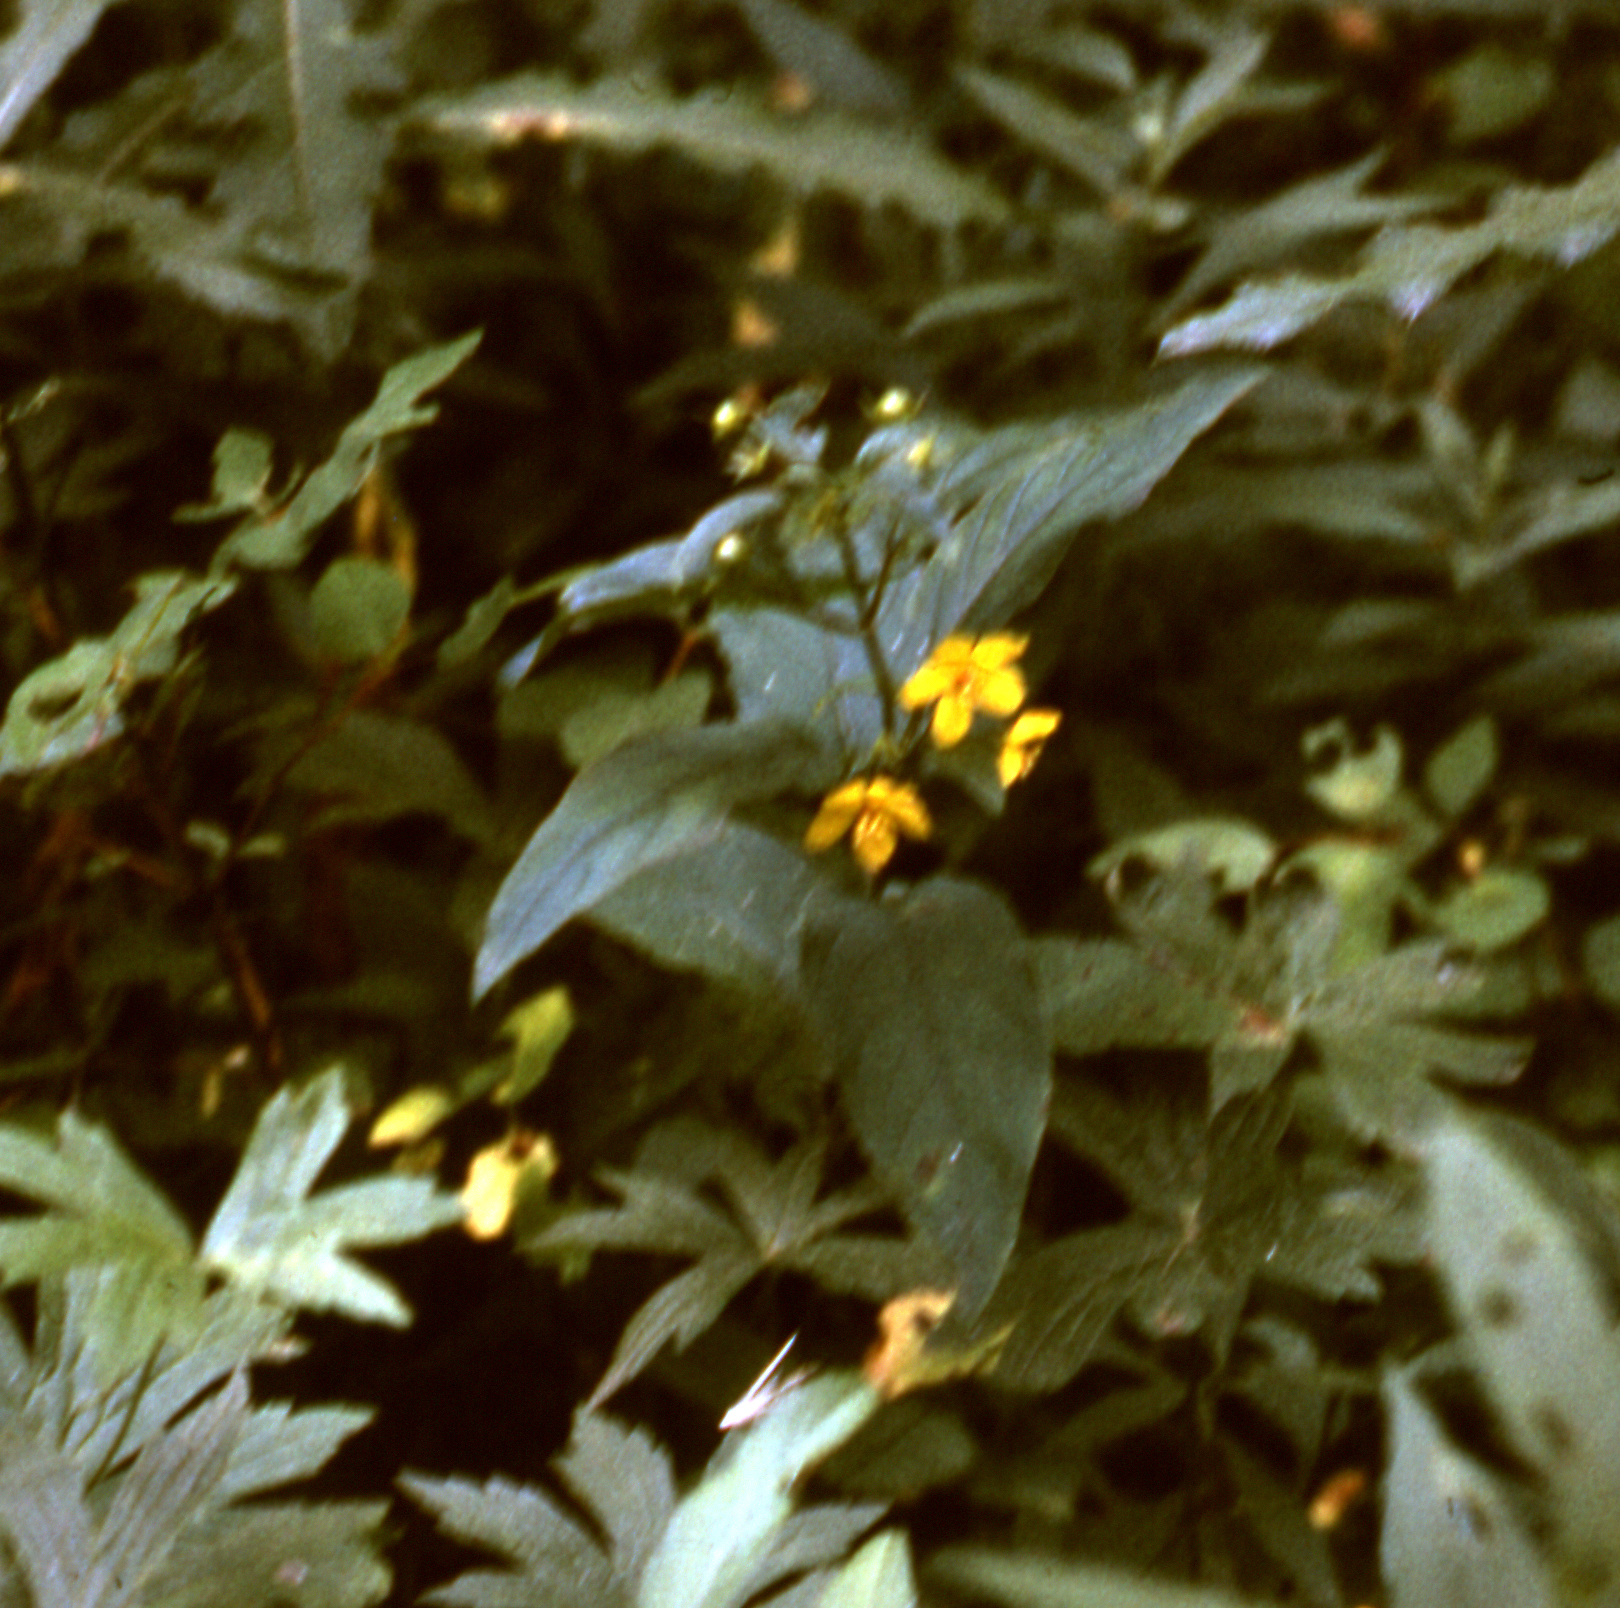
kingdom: Plantae
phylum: Tracheophyta
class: Magnoliopsida
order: Ericales
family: Primulaceae
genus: Lysimachia
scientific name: Lysimachia ciliata
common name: Fringed loosestrife
